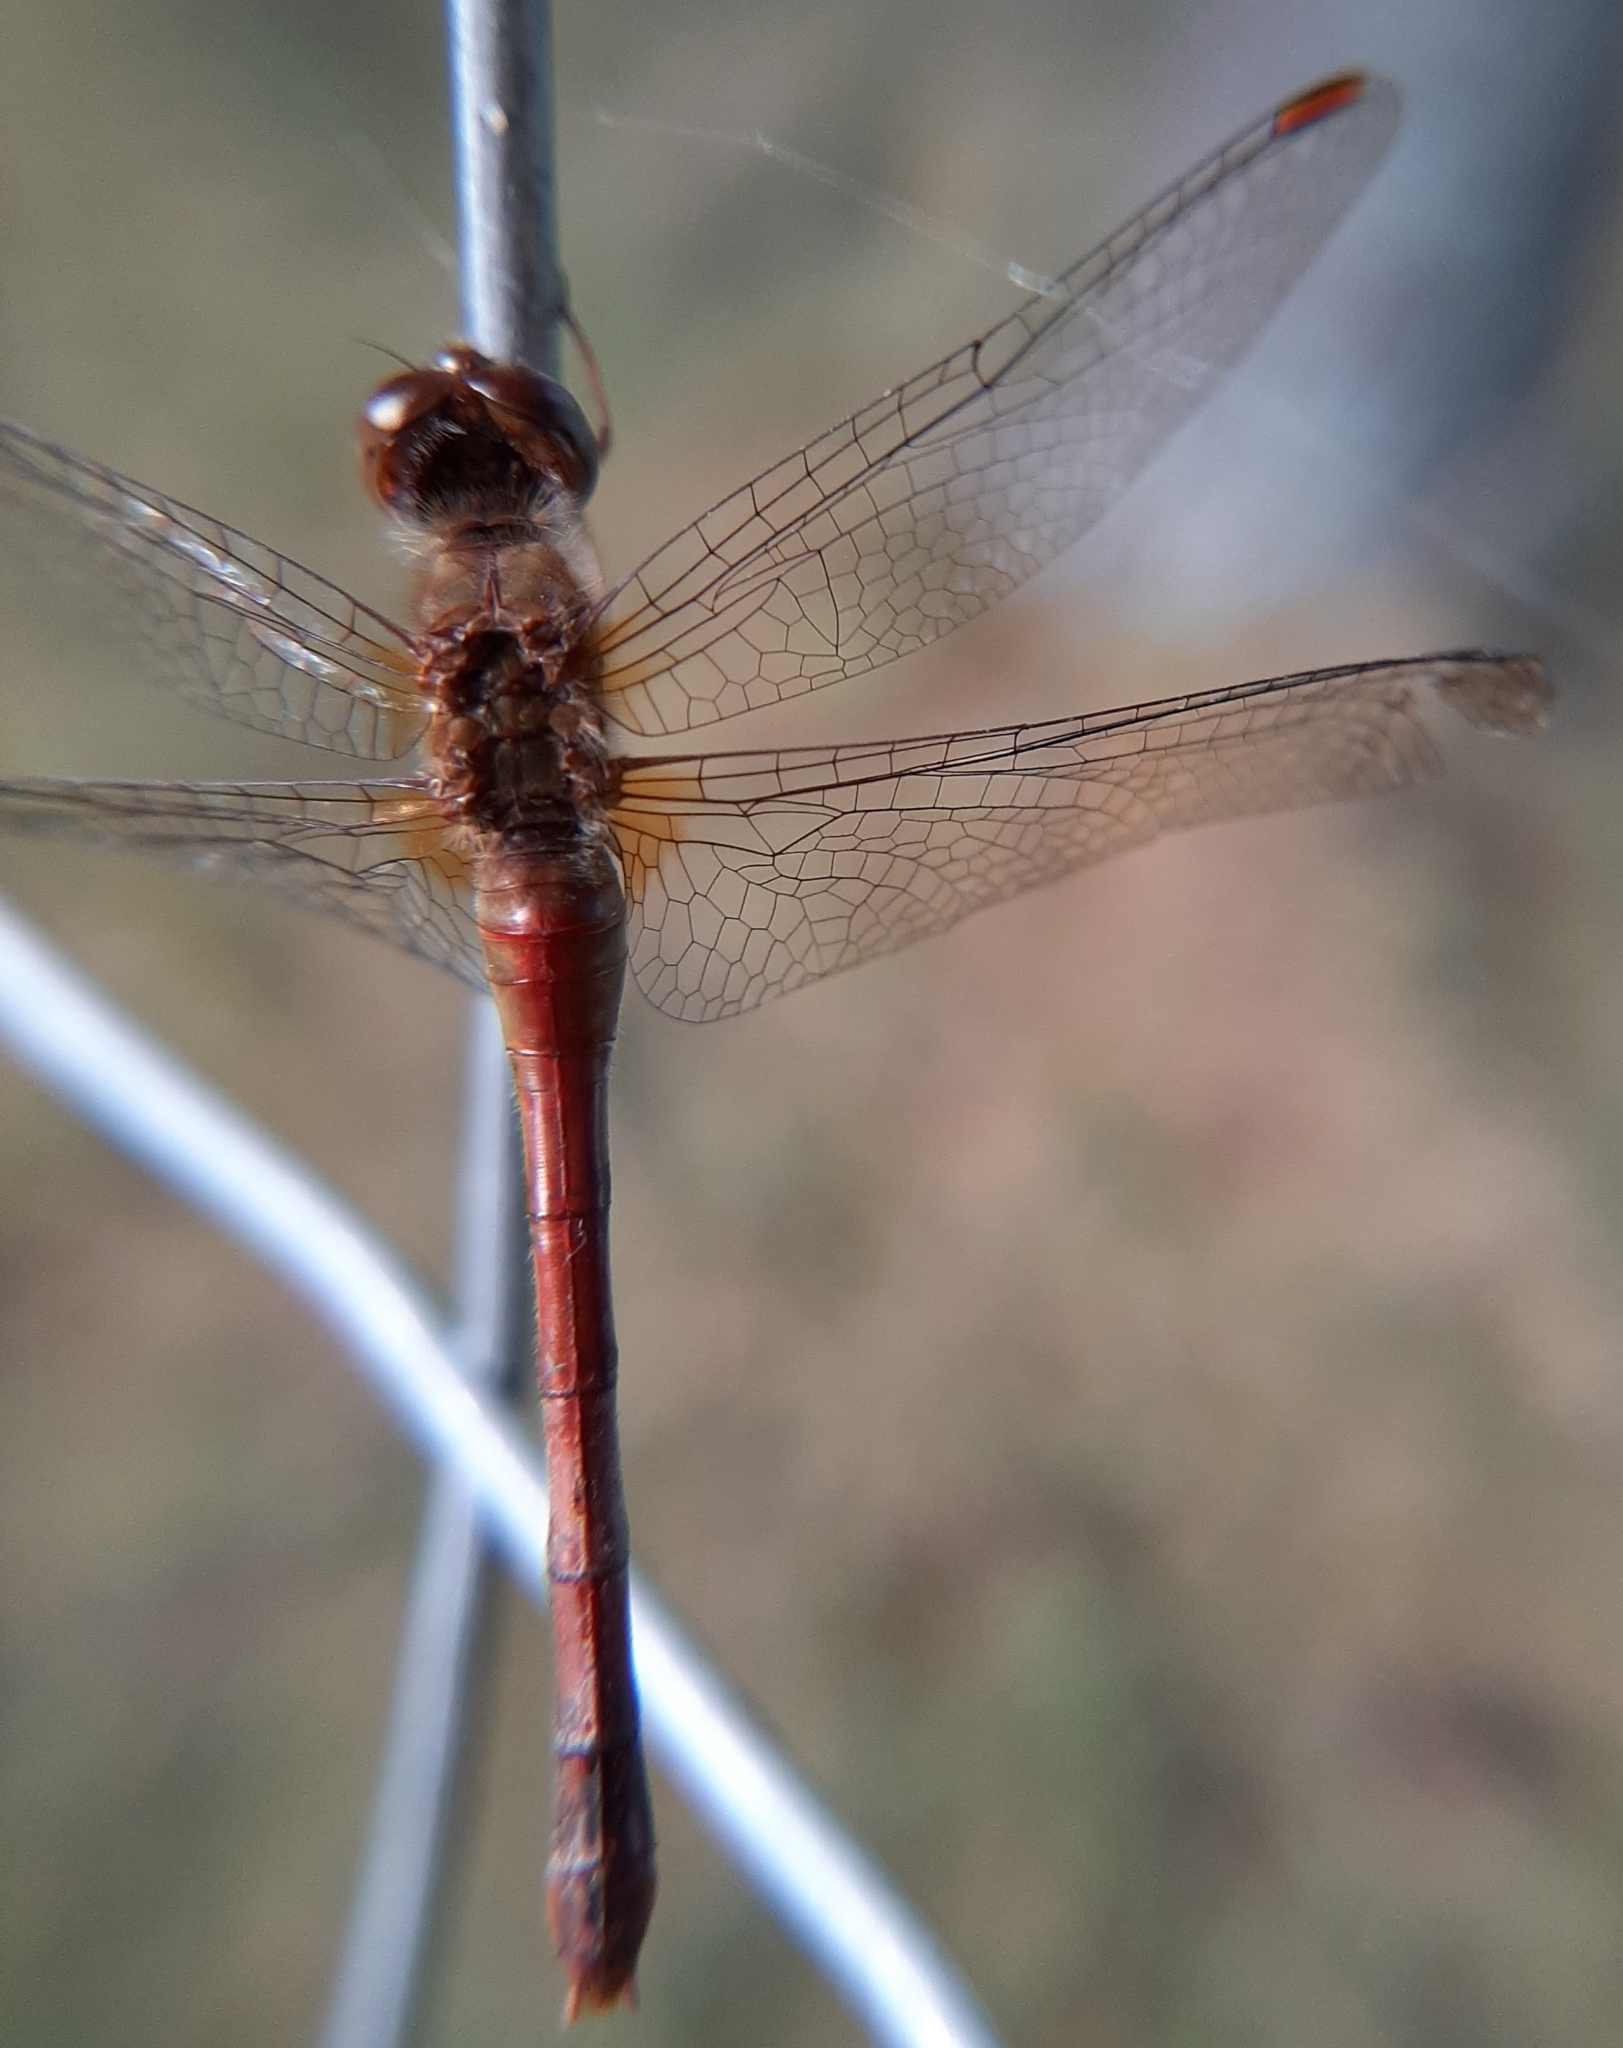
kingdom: Animalia
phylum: Arthropoda
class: Insecta
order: Odonata
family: Libellulidae
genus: Sympetrum
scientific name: Sympetrum vicinum
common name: Autumn meadowhawk
